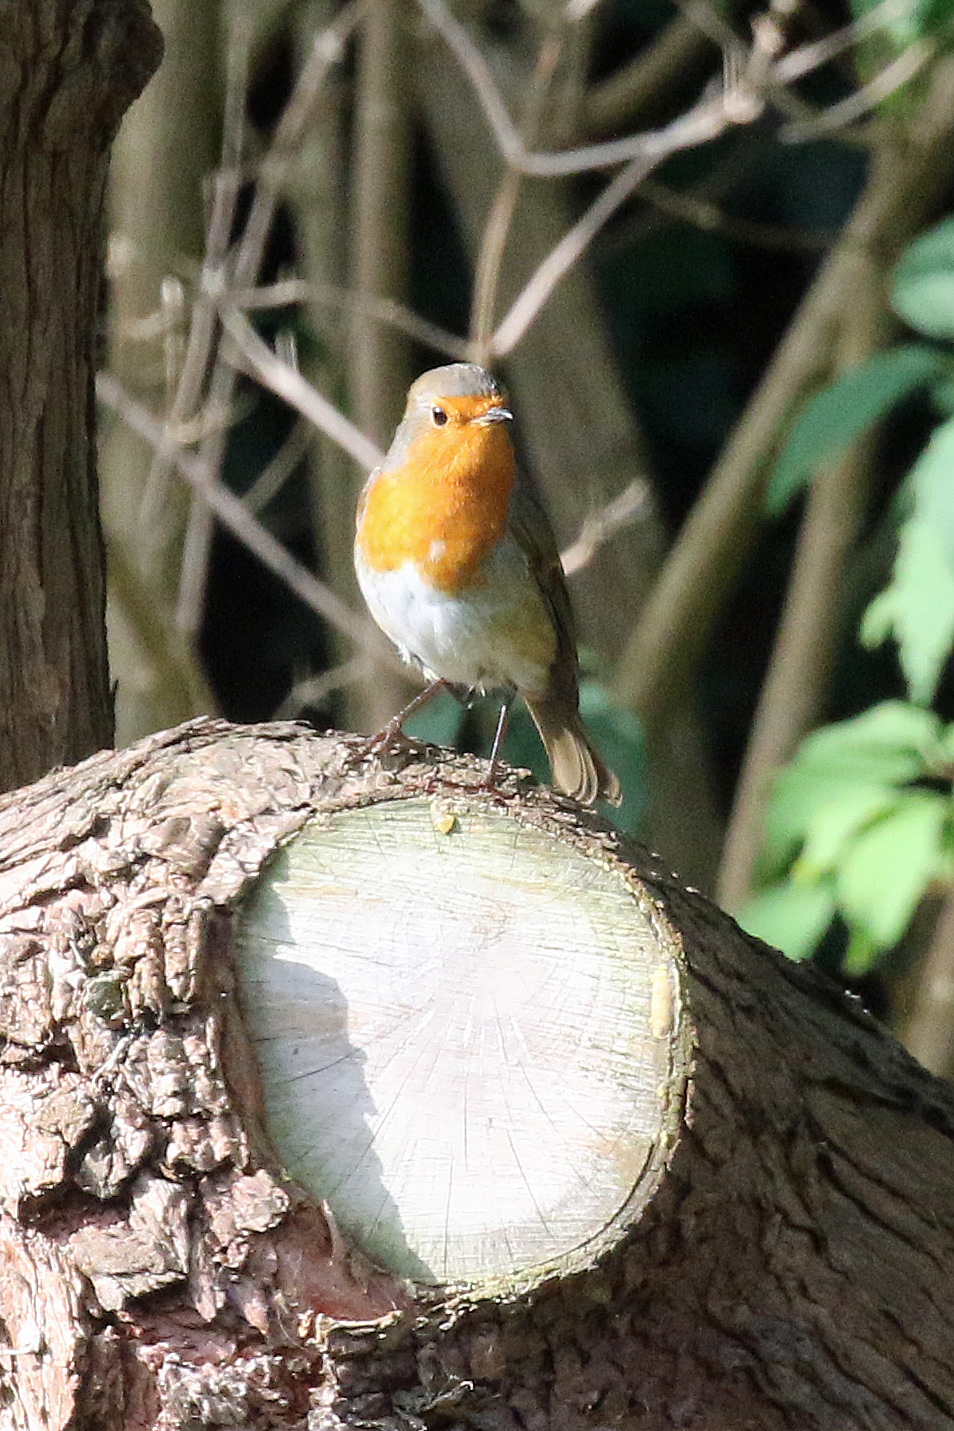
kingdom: Animalia
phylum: Chordata
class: Aves
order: Passeriformes
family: Muscicapidae
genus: Erithacus
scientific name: Erithacus rubecula
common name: European robin
